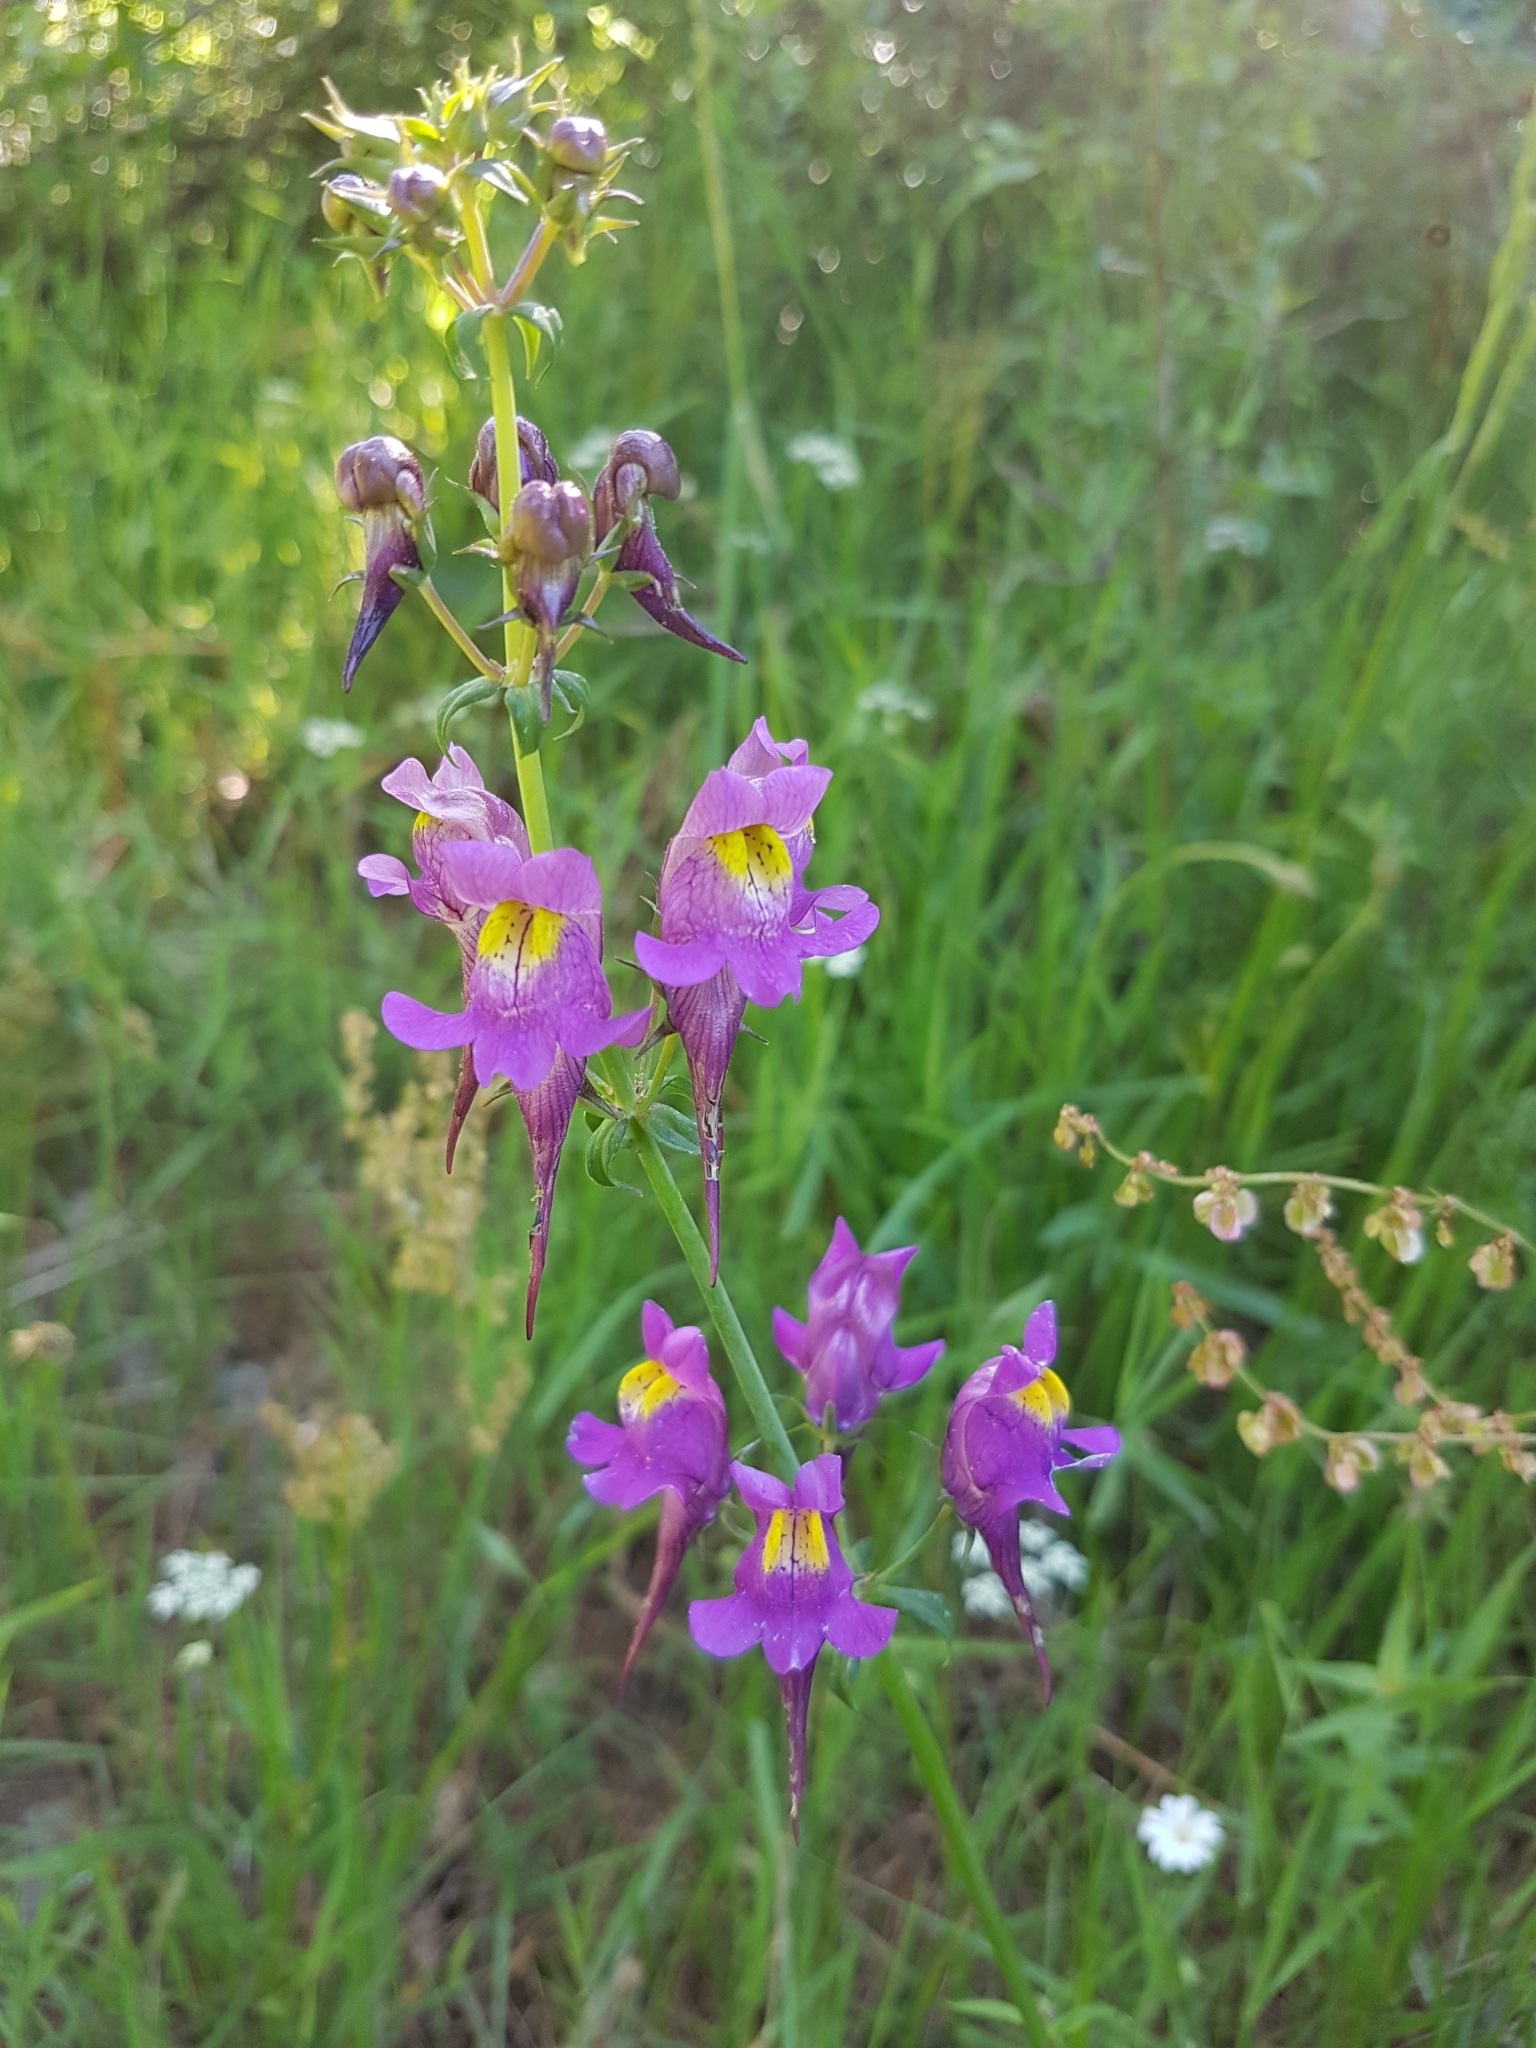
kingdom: Plantae
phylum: Tracheophyta
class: Magnoliopsida
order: Lamiales
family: Plantaginaceae
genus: Linaria
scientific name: Linaria triornithophora
